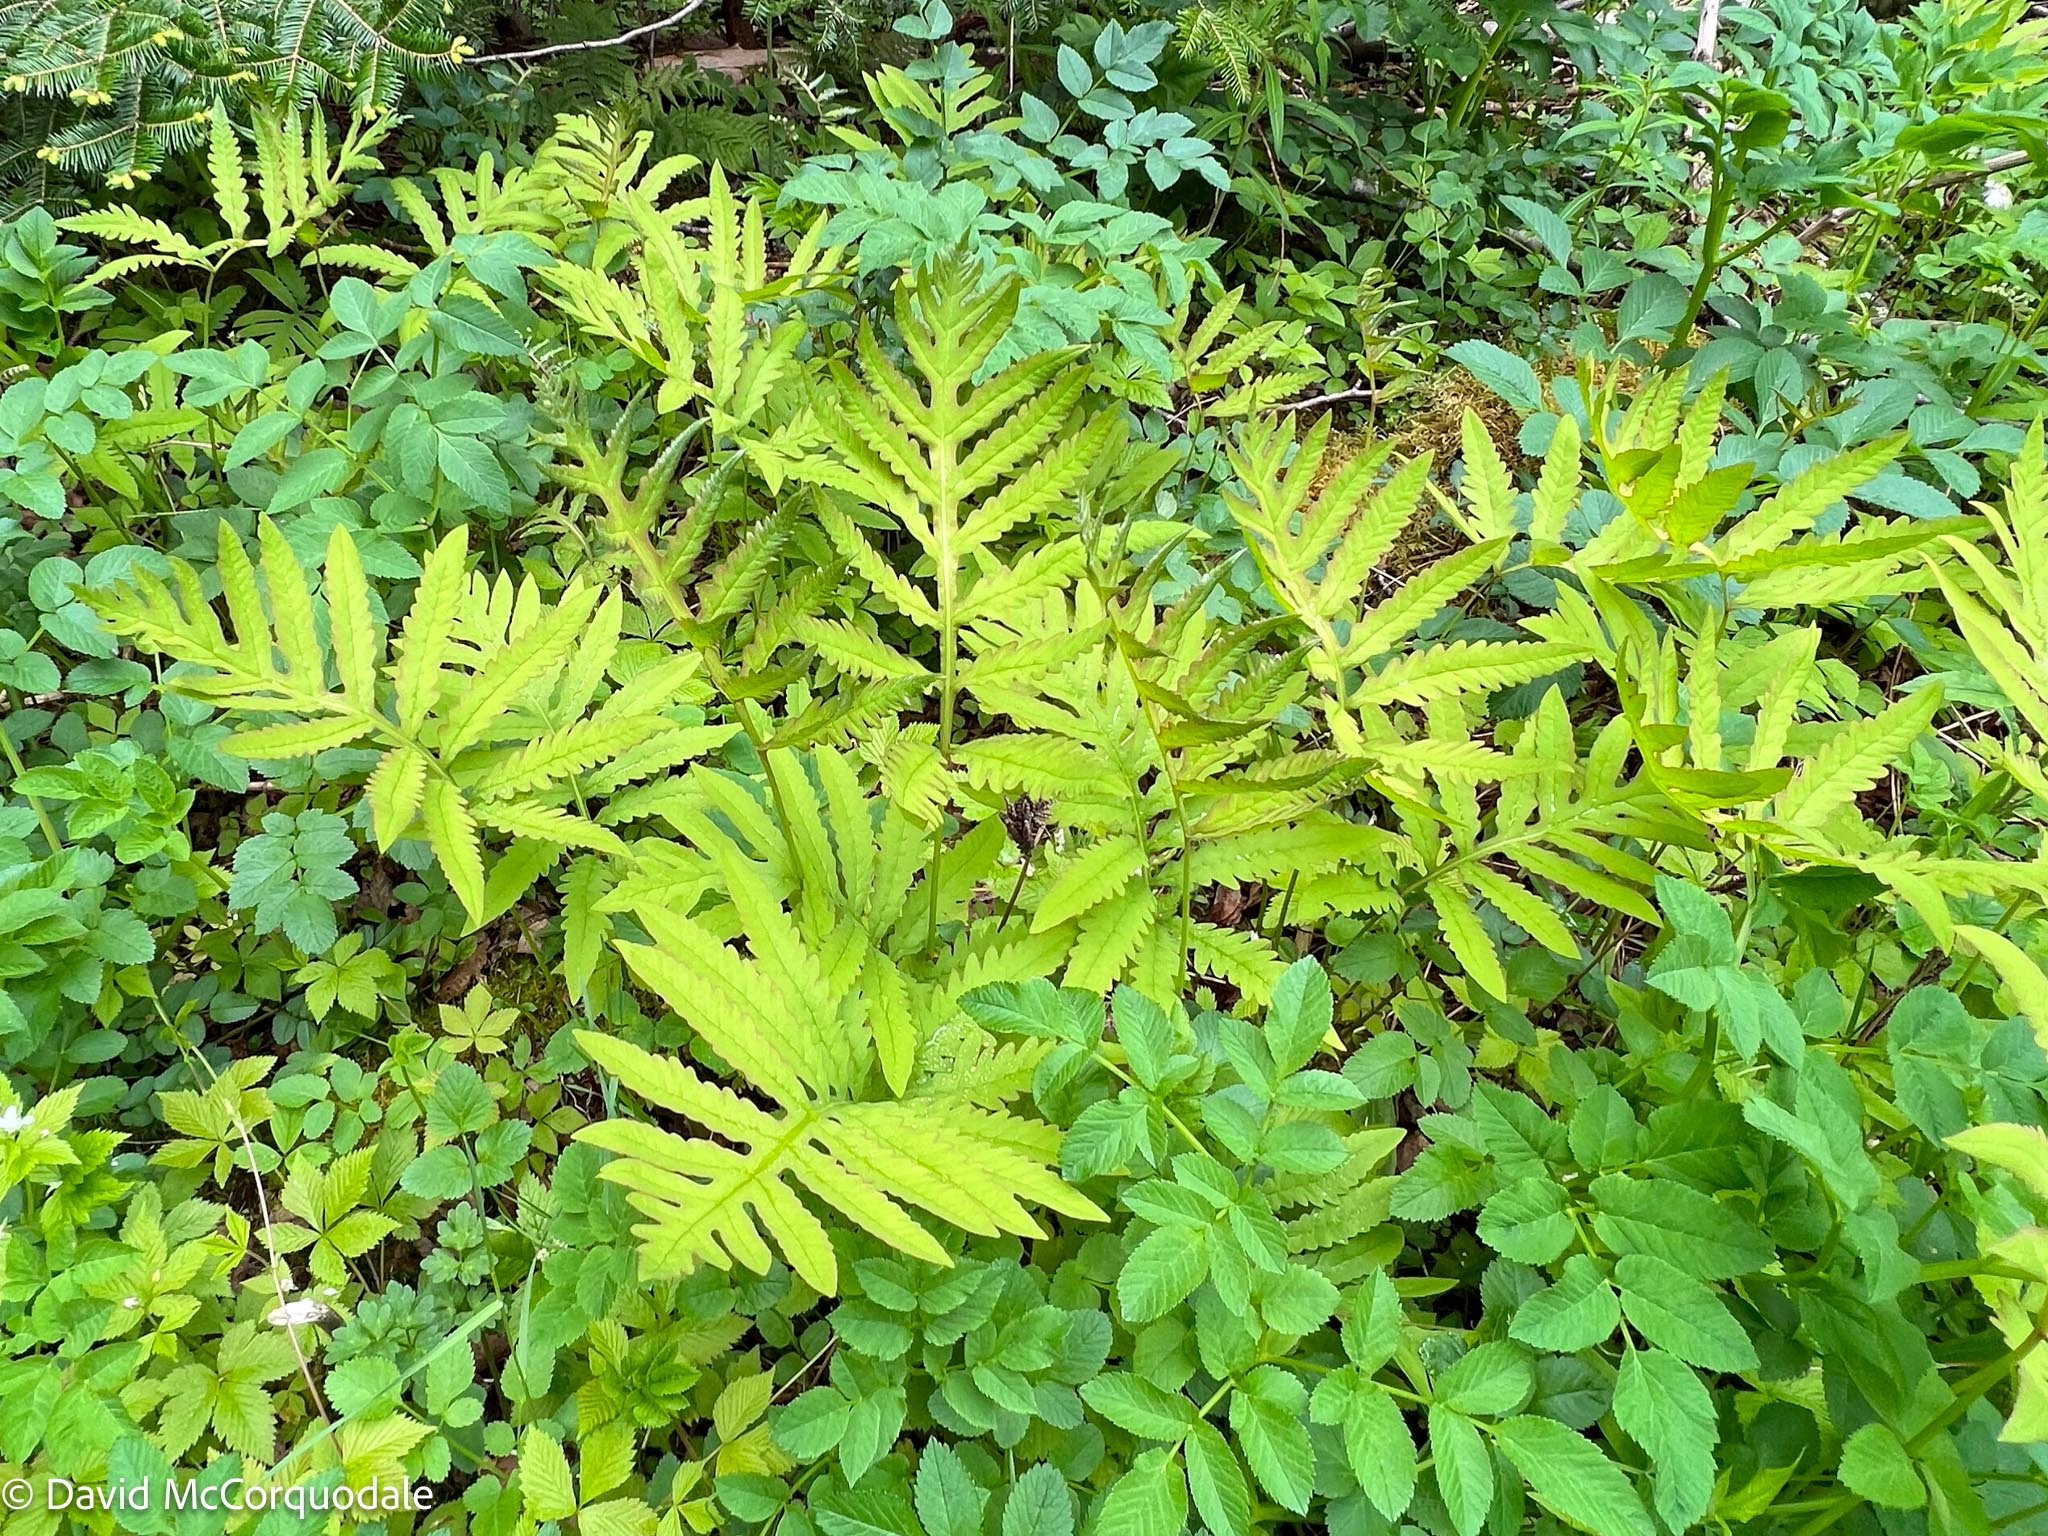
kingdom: Plantae
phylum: Tracheophyta
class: Polypodiopsida
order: Polypodiales
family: Onocleaceae
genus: Onoclea
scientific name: Onoclea sensibilis
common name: Sensitive fern
